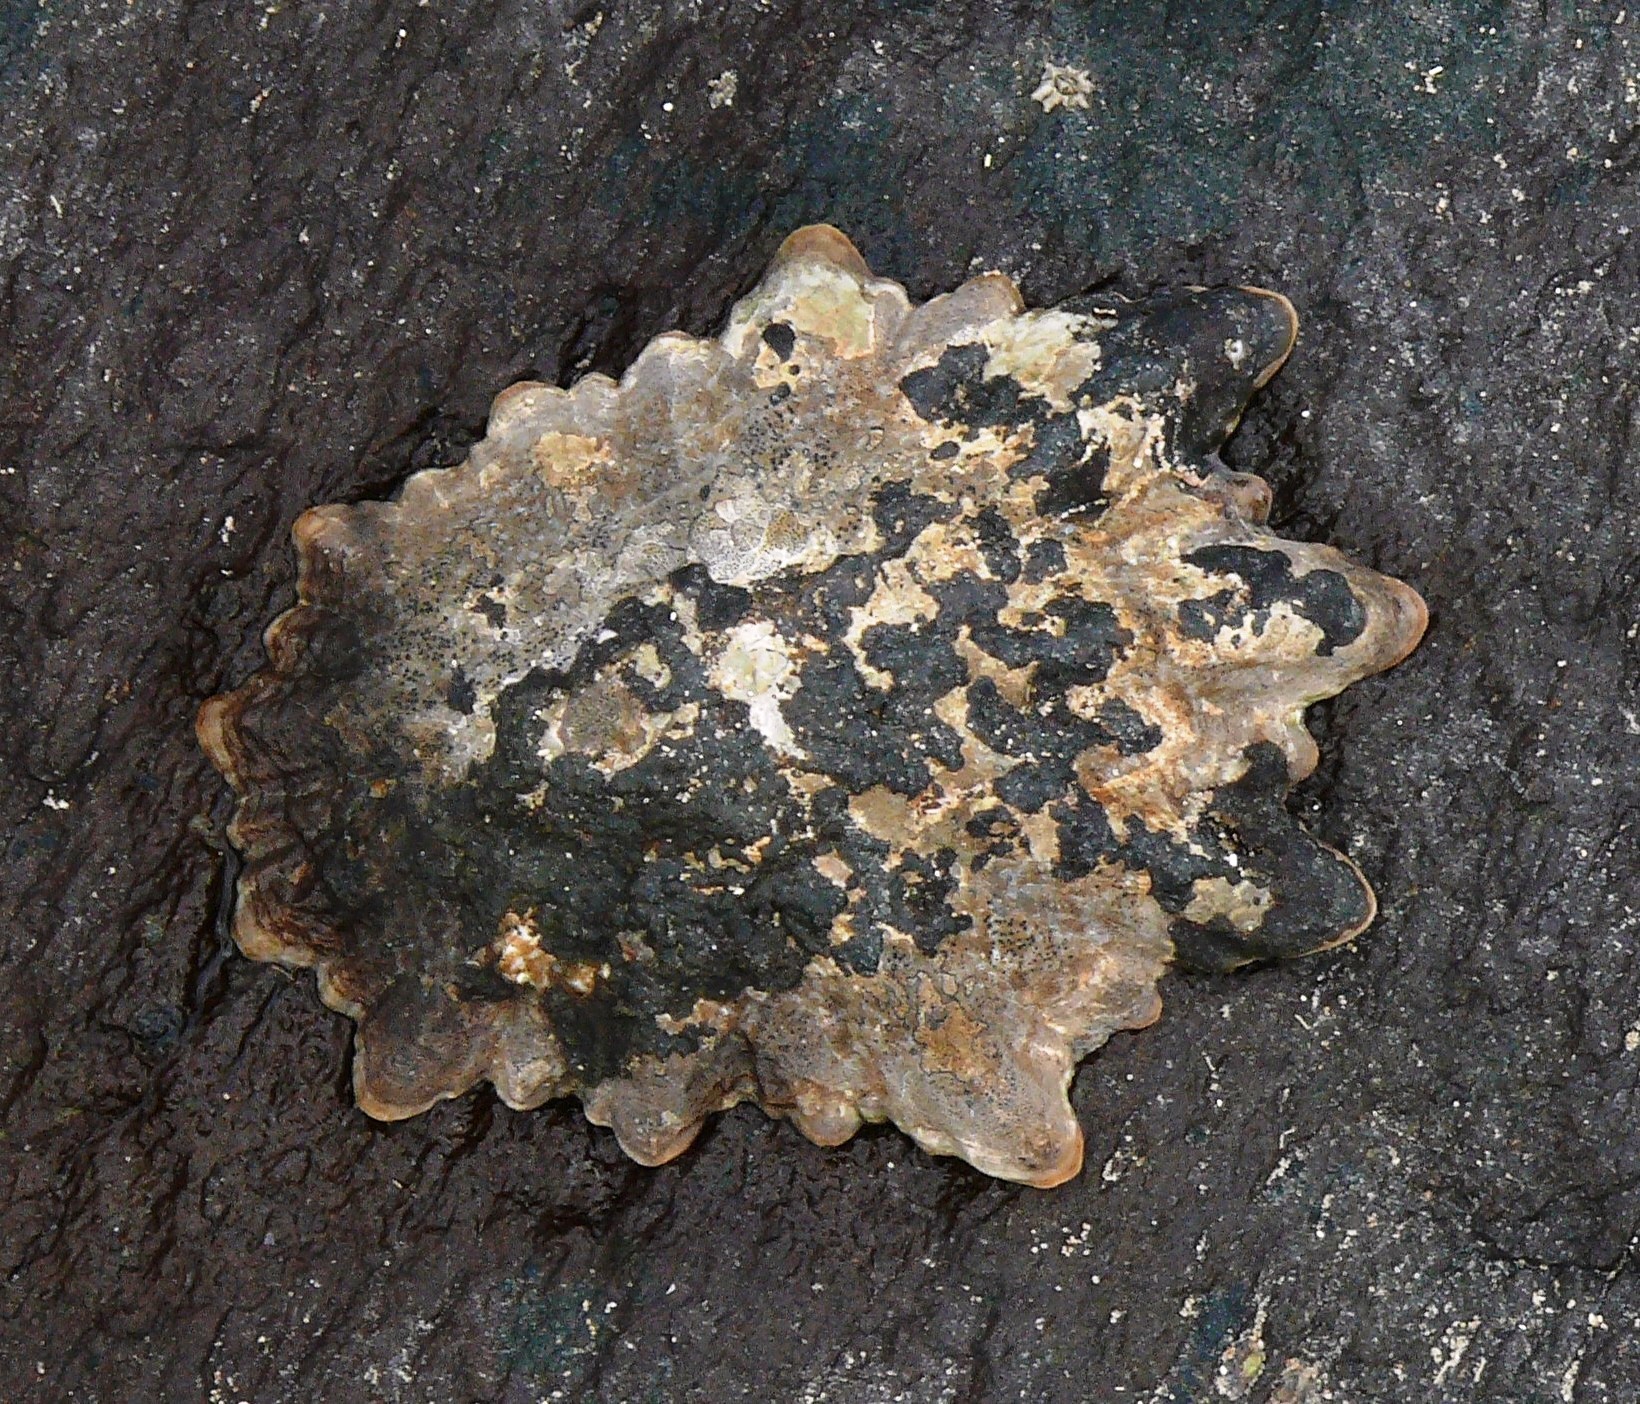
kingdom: Animalia
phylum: Mollusca
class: Gastropoda
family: Patellidae
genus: Cymbula
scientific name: Cymbula oculus
